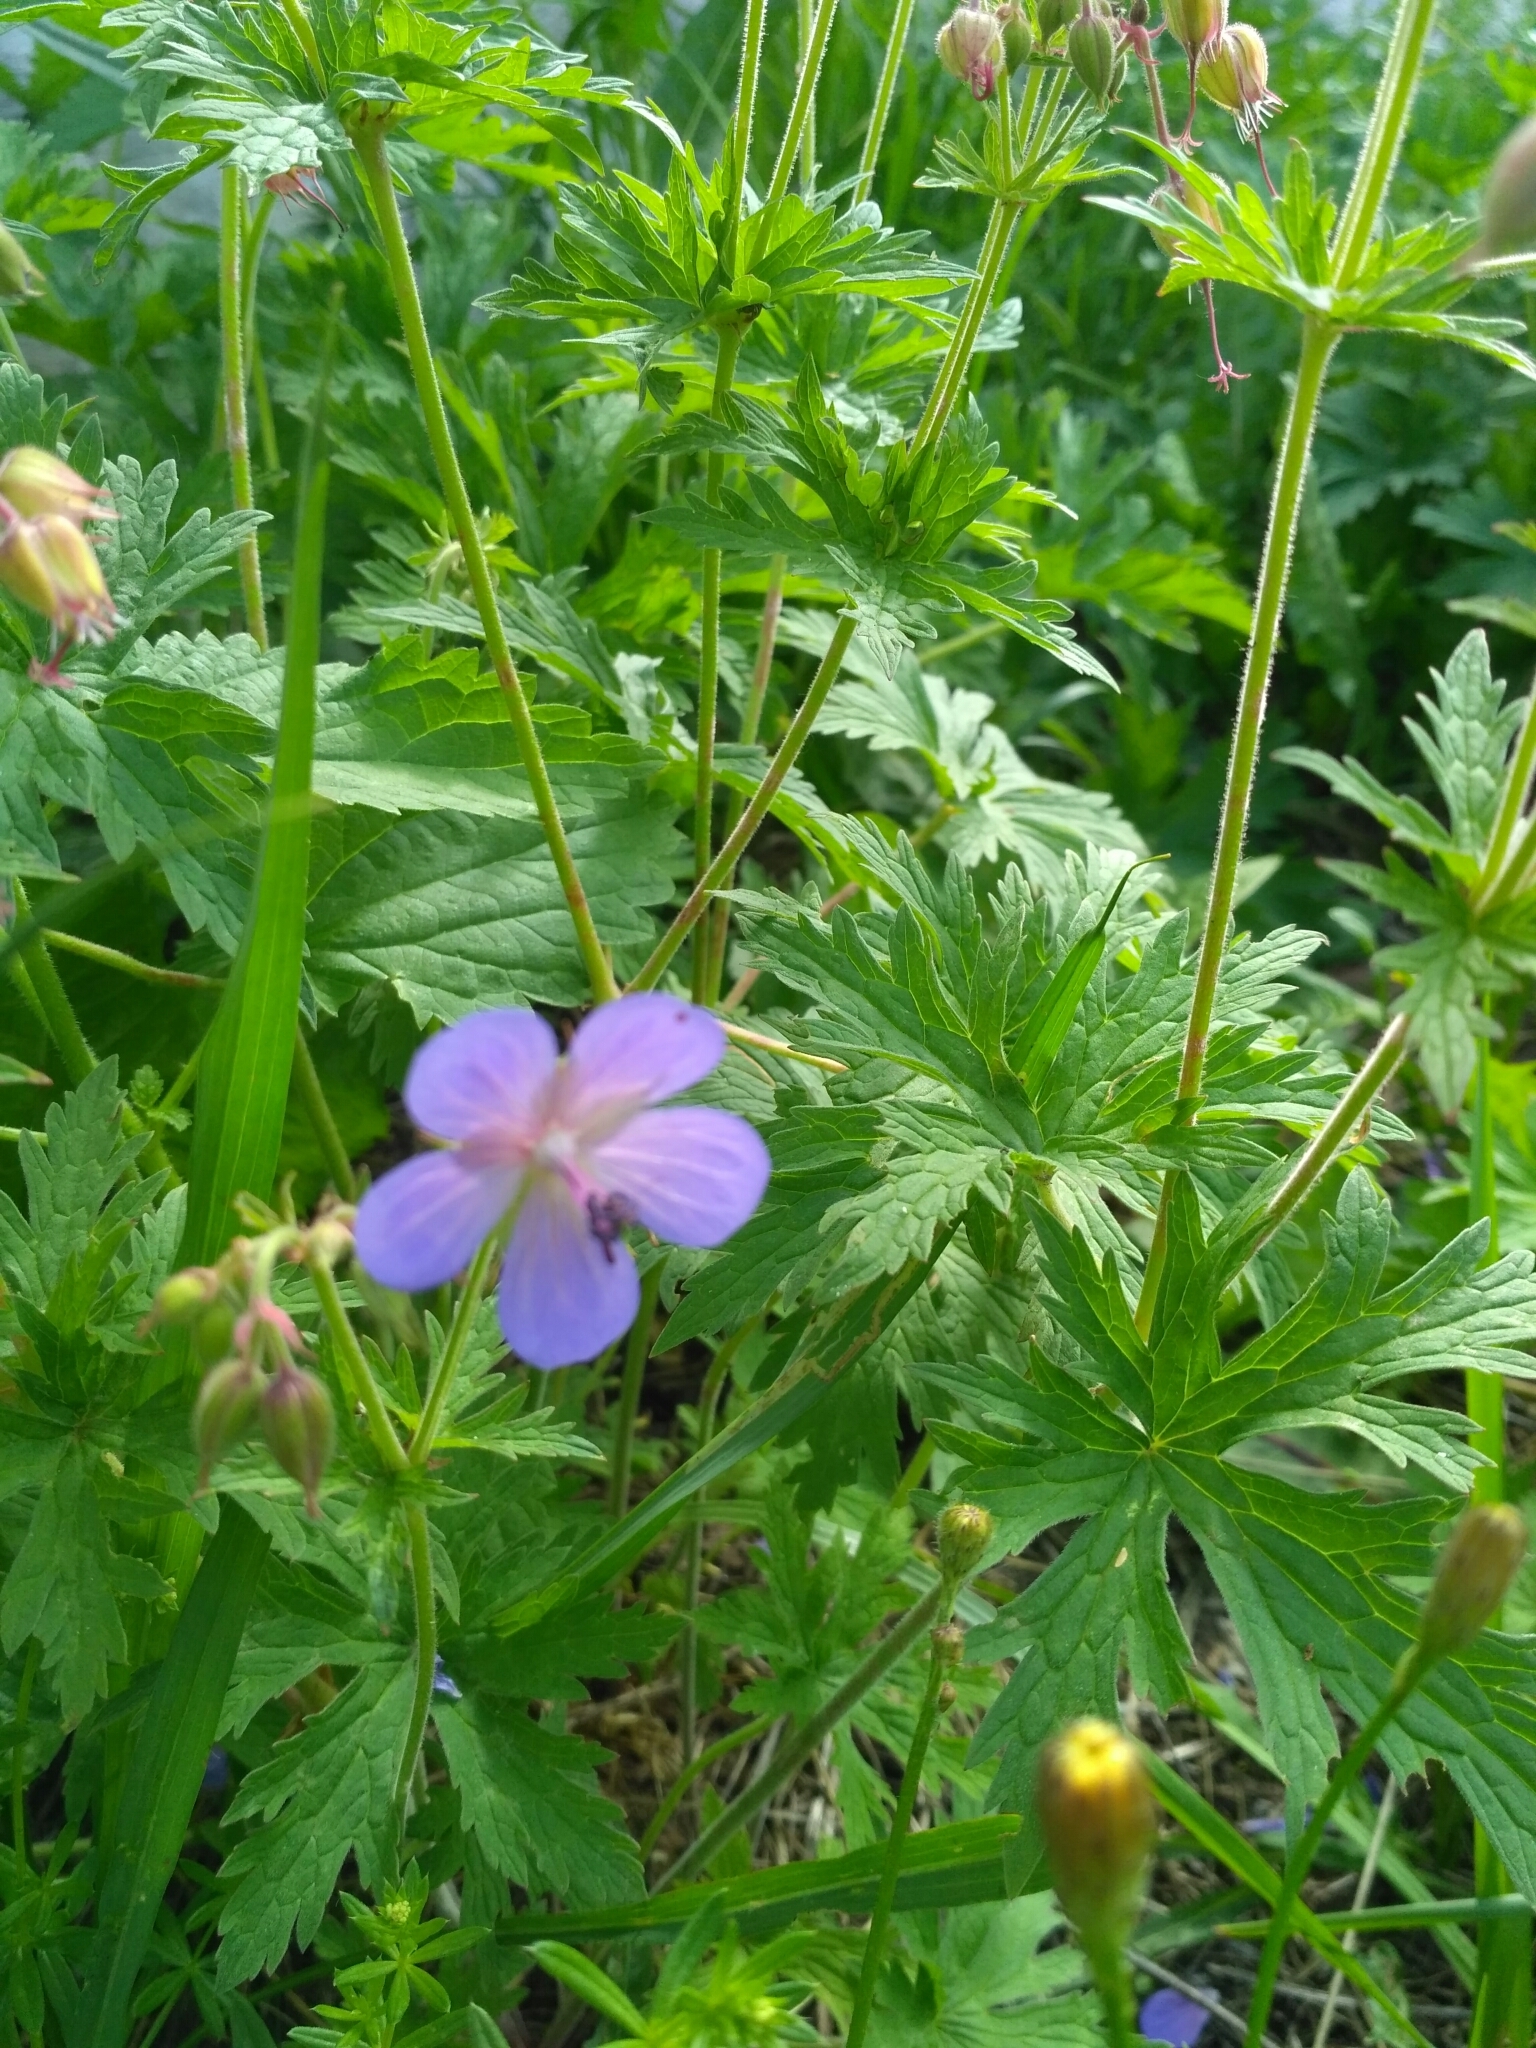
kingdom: Plantae
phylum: Tracheophyta
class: Magnoliopsida
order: Geraniales
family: Geraniaceae
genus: Geranium
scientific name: Geranium pratense
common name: Meadow crane's-bill
